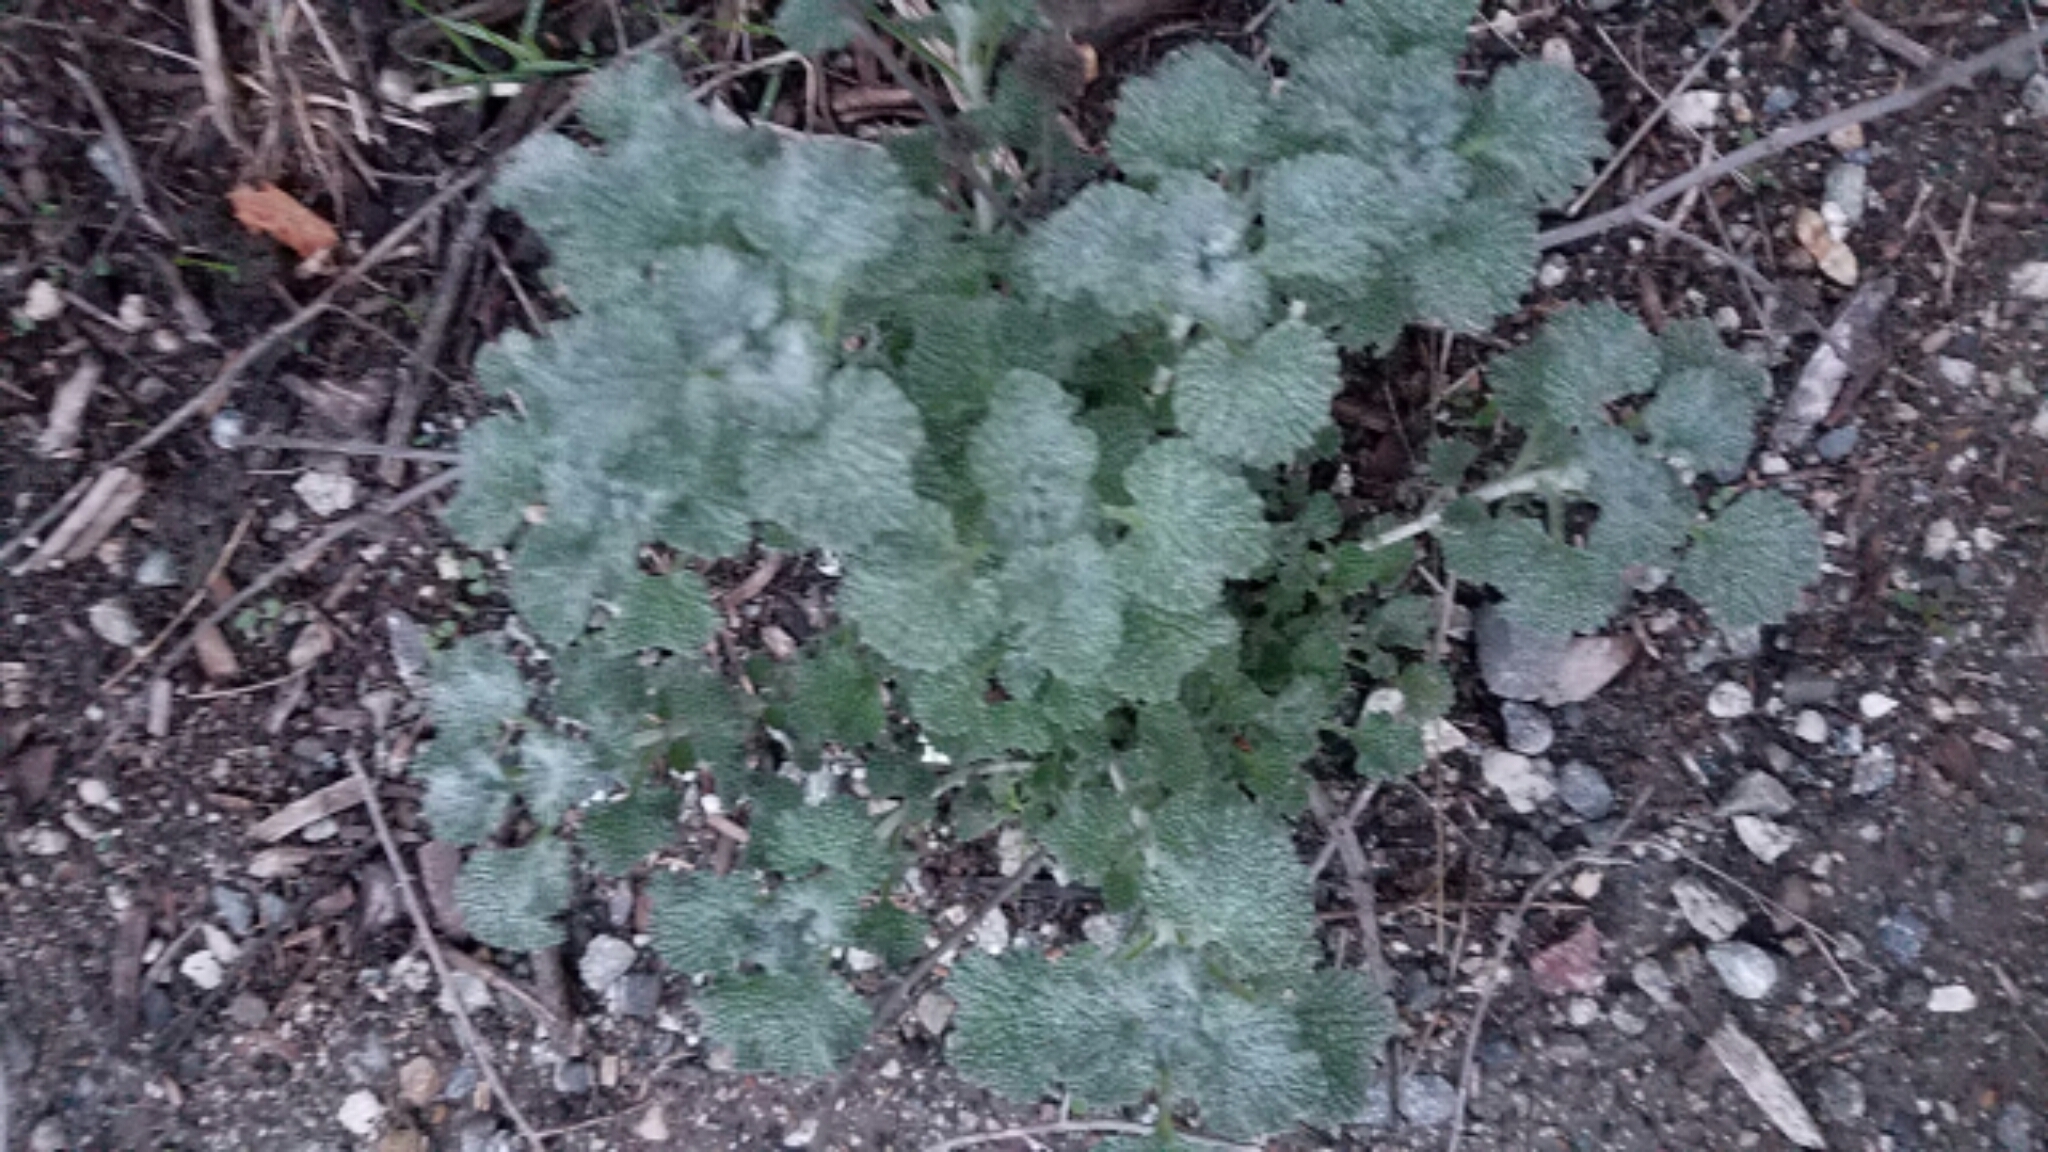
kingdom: Plantae
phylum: Tracheophyta
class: Magnoliopsida
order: Lamiales
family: Lamiaceae
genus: Marrubium
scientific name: Marrubium vulgare
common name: Horehound
